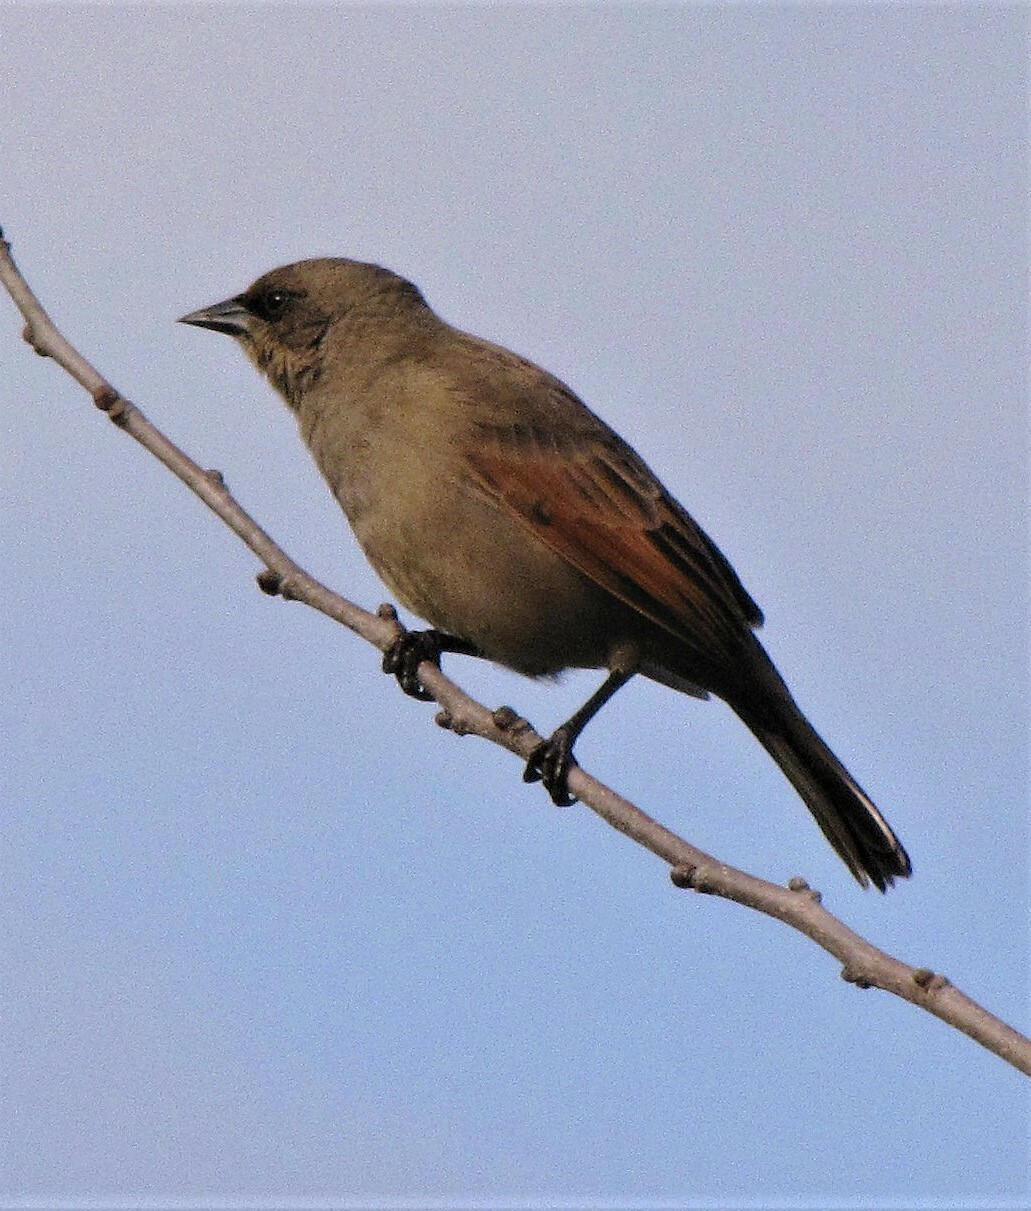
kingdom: Animalia
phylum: Chordata
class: Aves
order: Passeriformes
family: Icteridae
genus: Agelaioides
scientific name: Agelaioides badius
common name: Baywing
